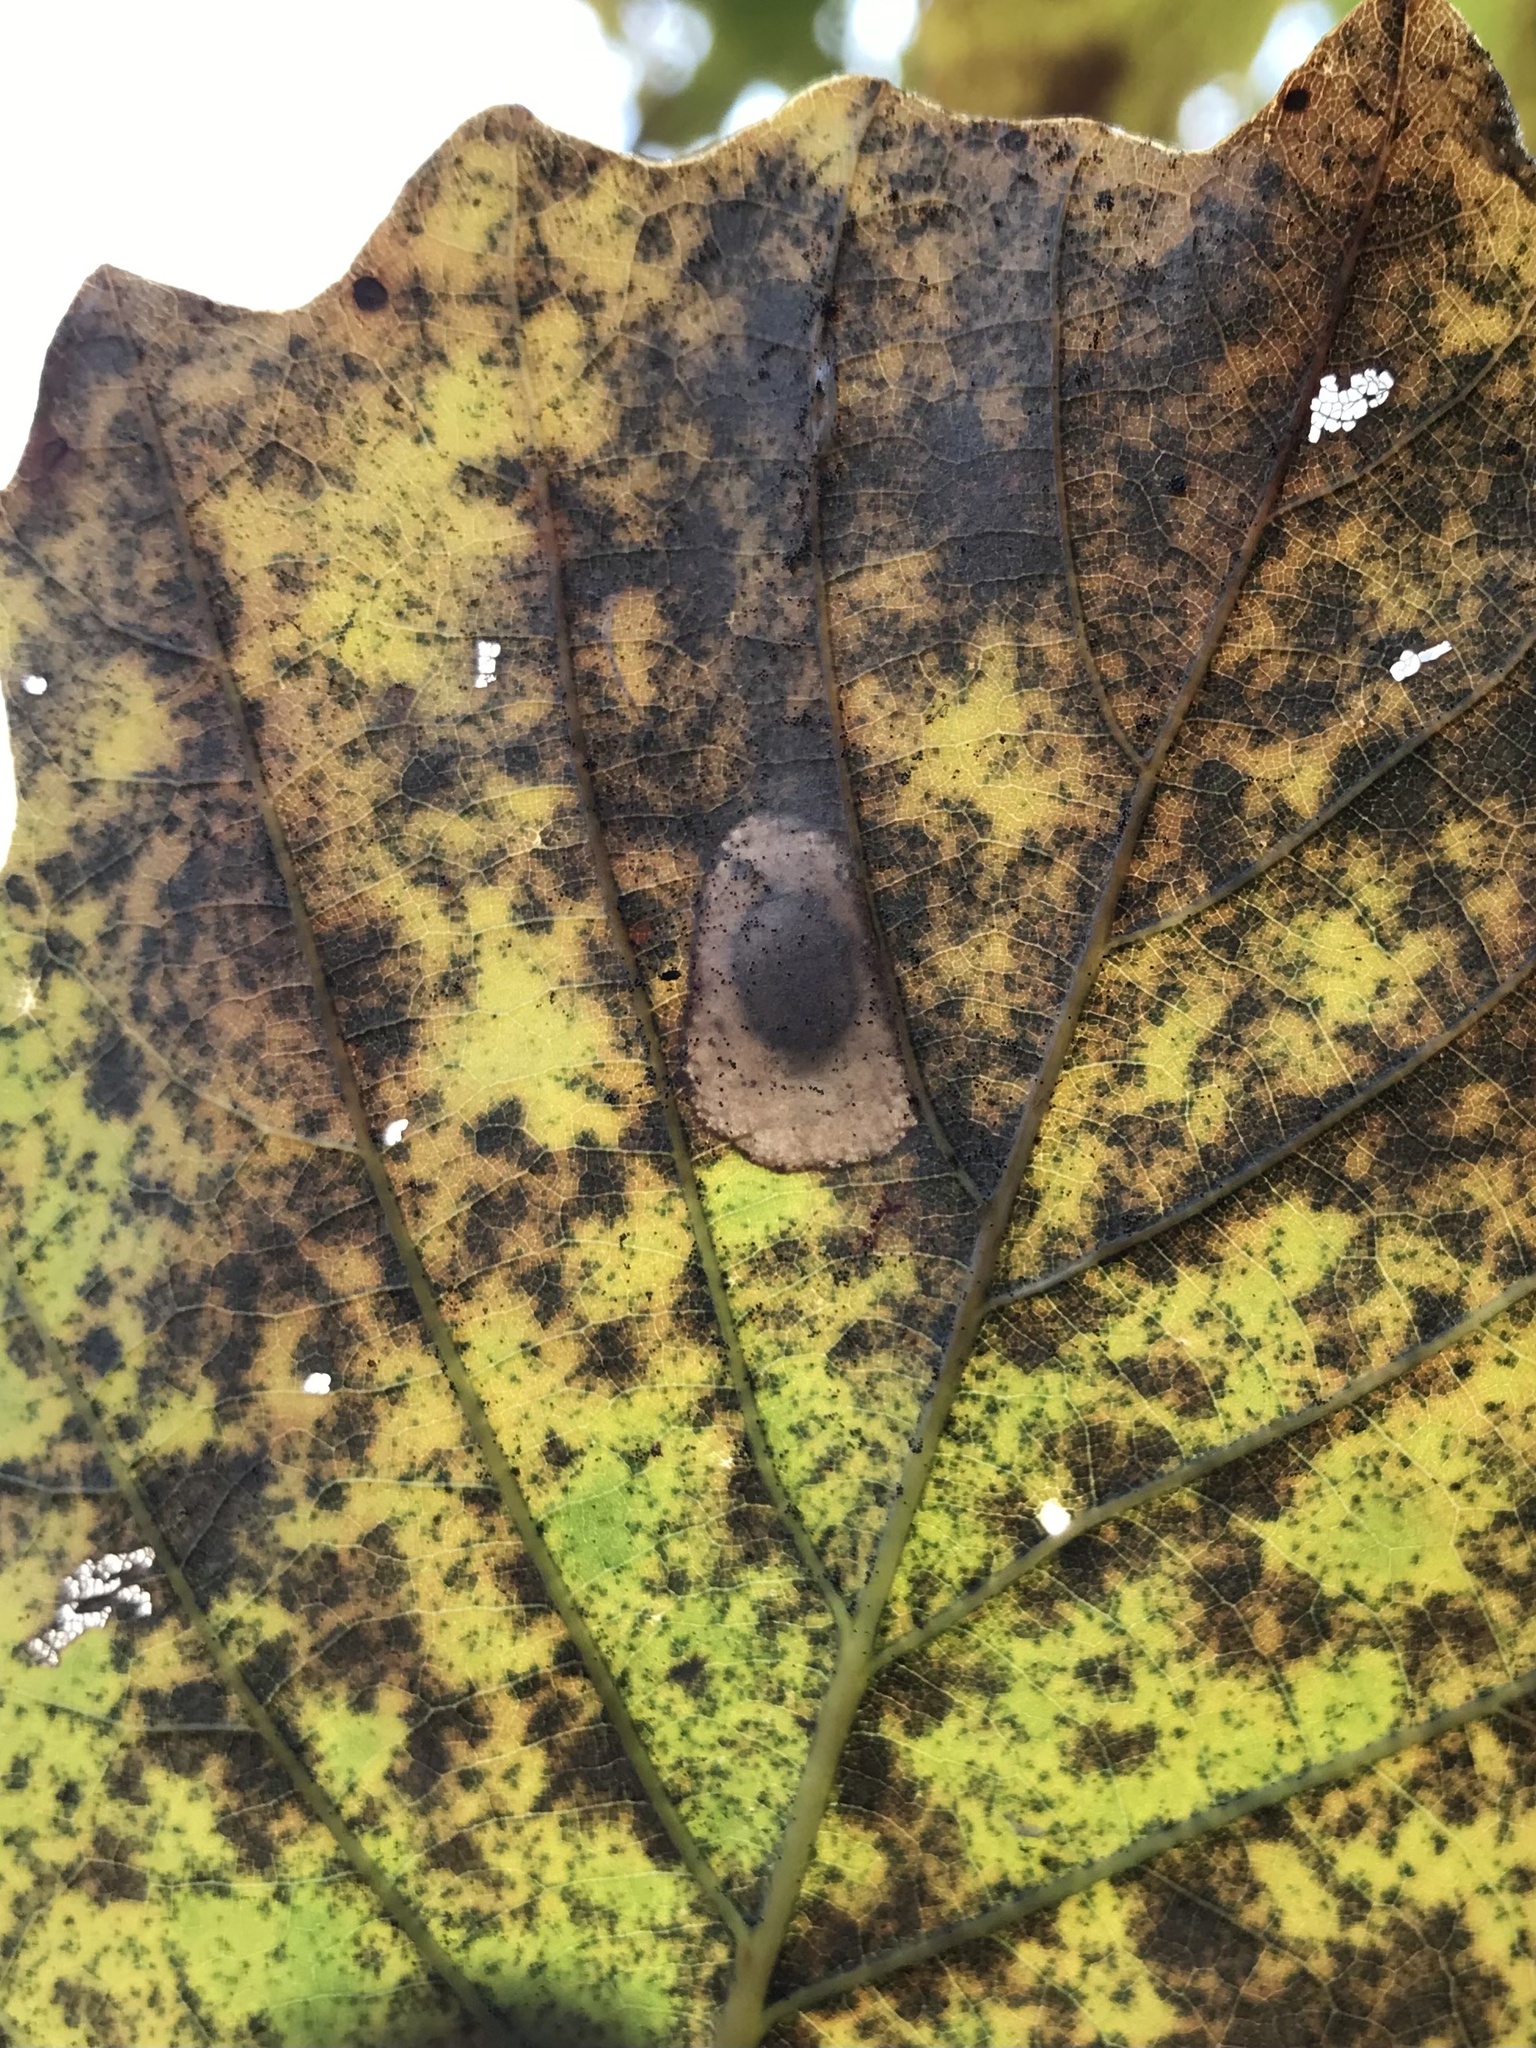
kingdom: Animalia
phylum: Arthropoda
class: Insecta
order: Lepidoptera
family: Gracillariidae
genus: Phyllonorycter
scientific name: Phyllonorycter basistrigella
